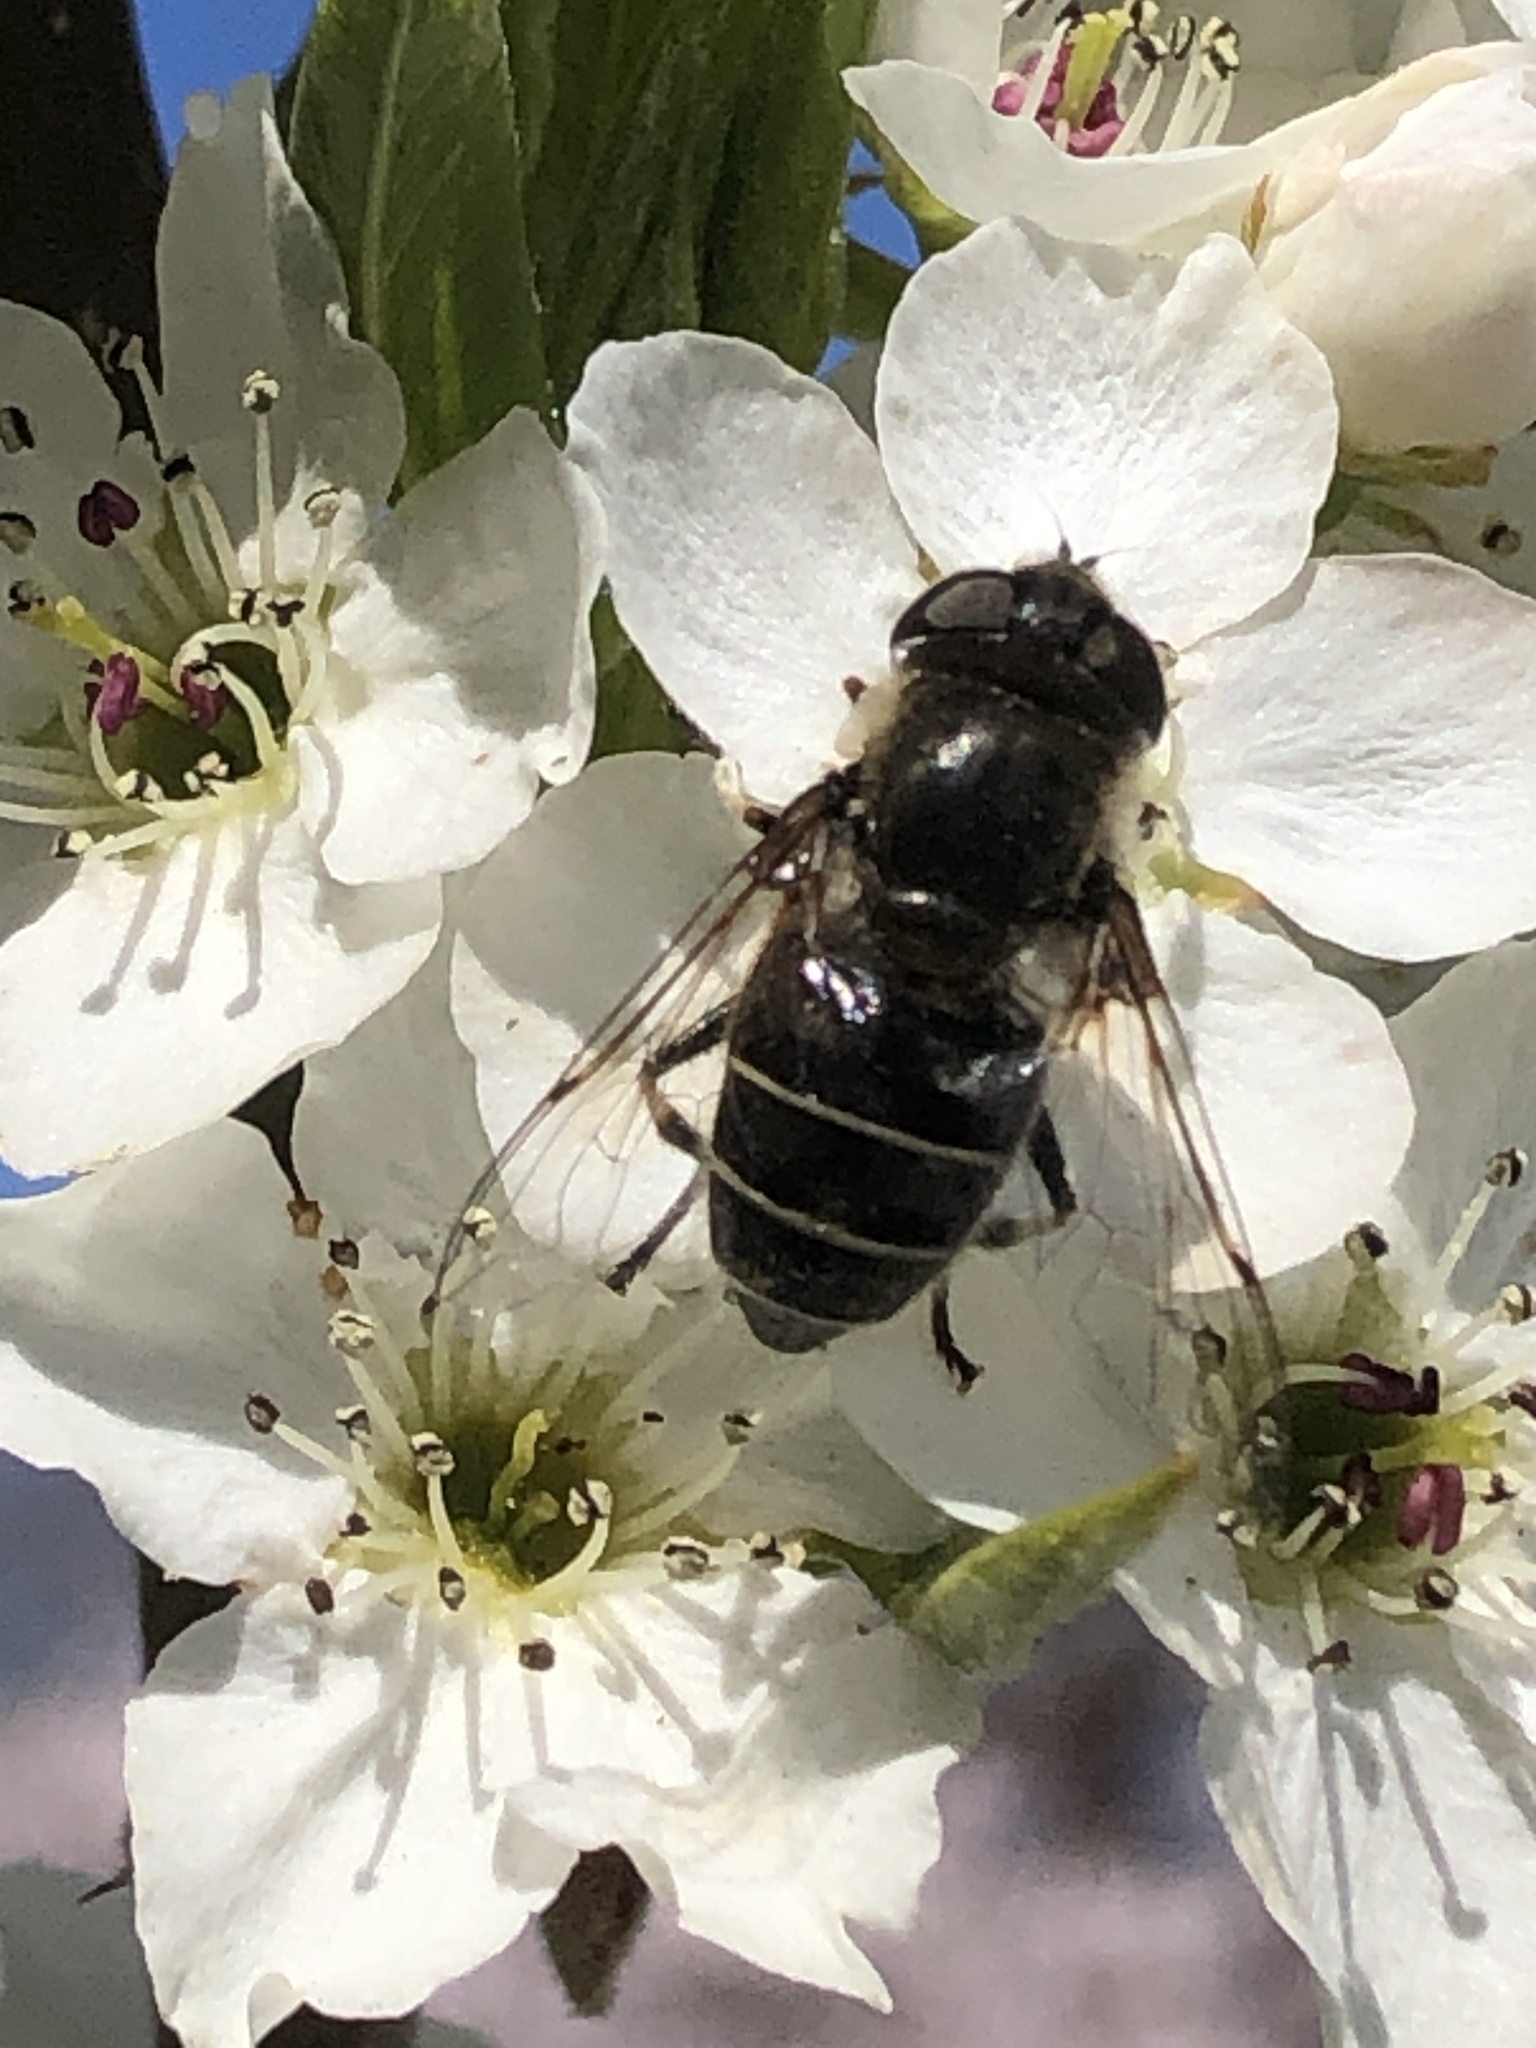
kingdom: Animalia
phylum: Arthropoda
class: Insecta
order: Diptera
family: Syrphidae
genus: Eristalis
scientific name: Eristalis dimidiata
